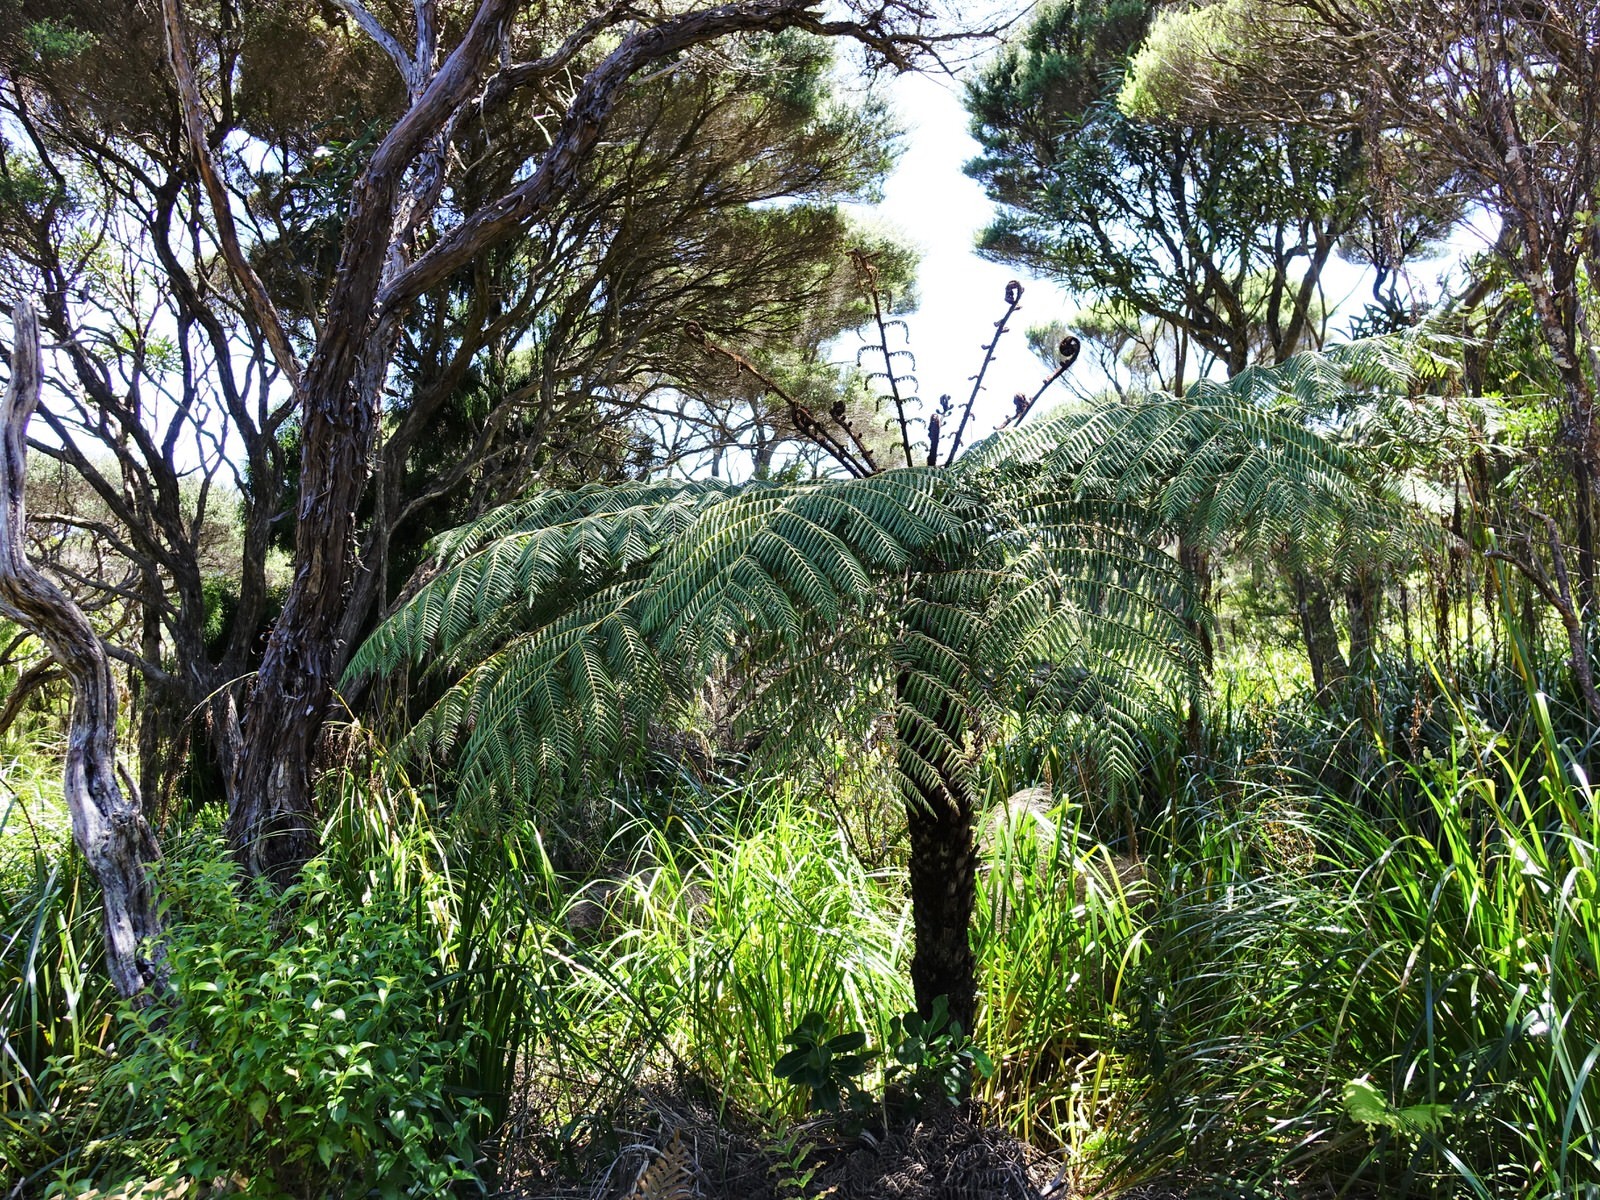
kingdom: Plantae
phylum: Tracheophyta
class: Polypodiopsida
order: Cyatheales
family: Cyatheaceae
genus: Alsophila
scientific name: Alsophila dealbata
